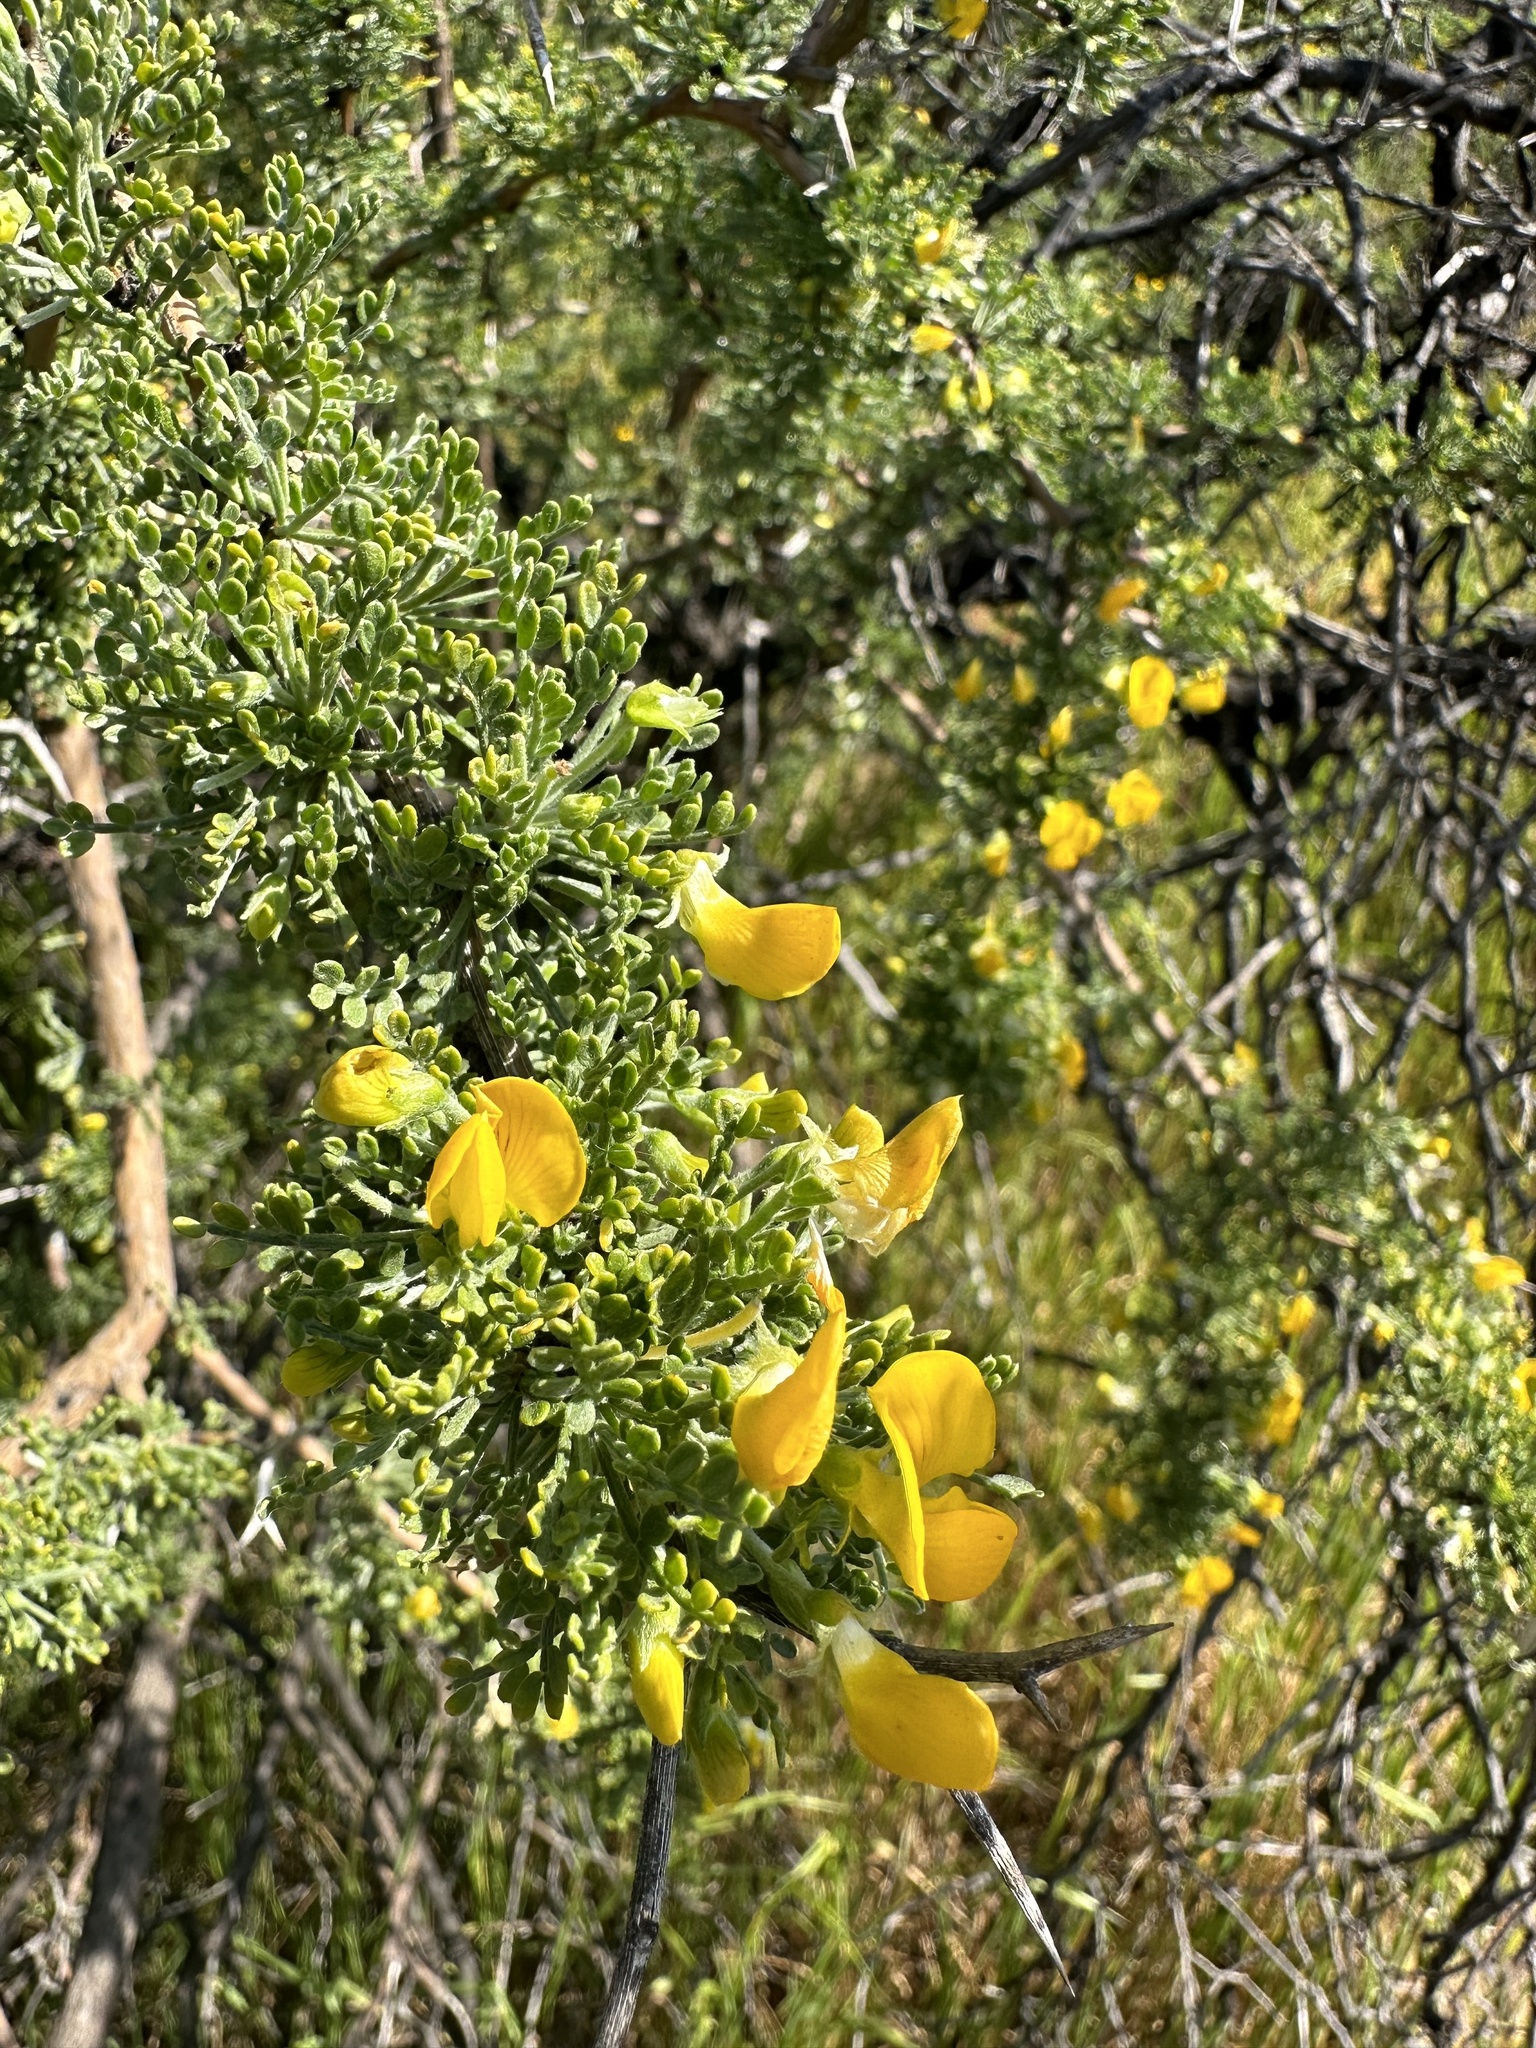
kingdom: Plantae
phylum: Tracheophyta
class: Magnoliopsida
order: Fabales
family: Fabaceae
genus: Adesmia
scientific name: Adesmia confusa
